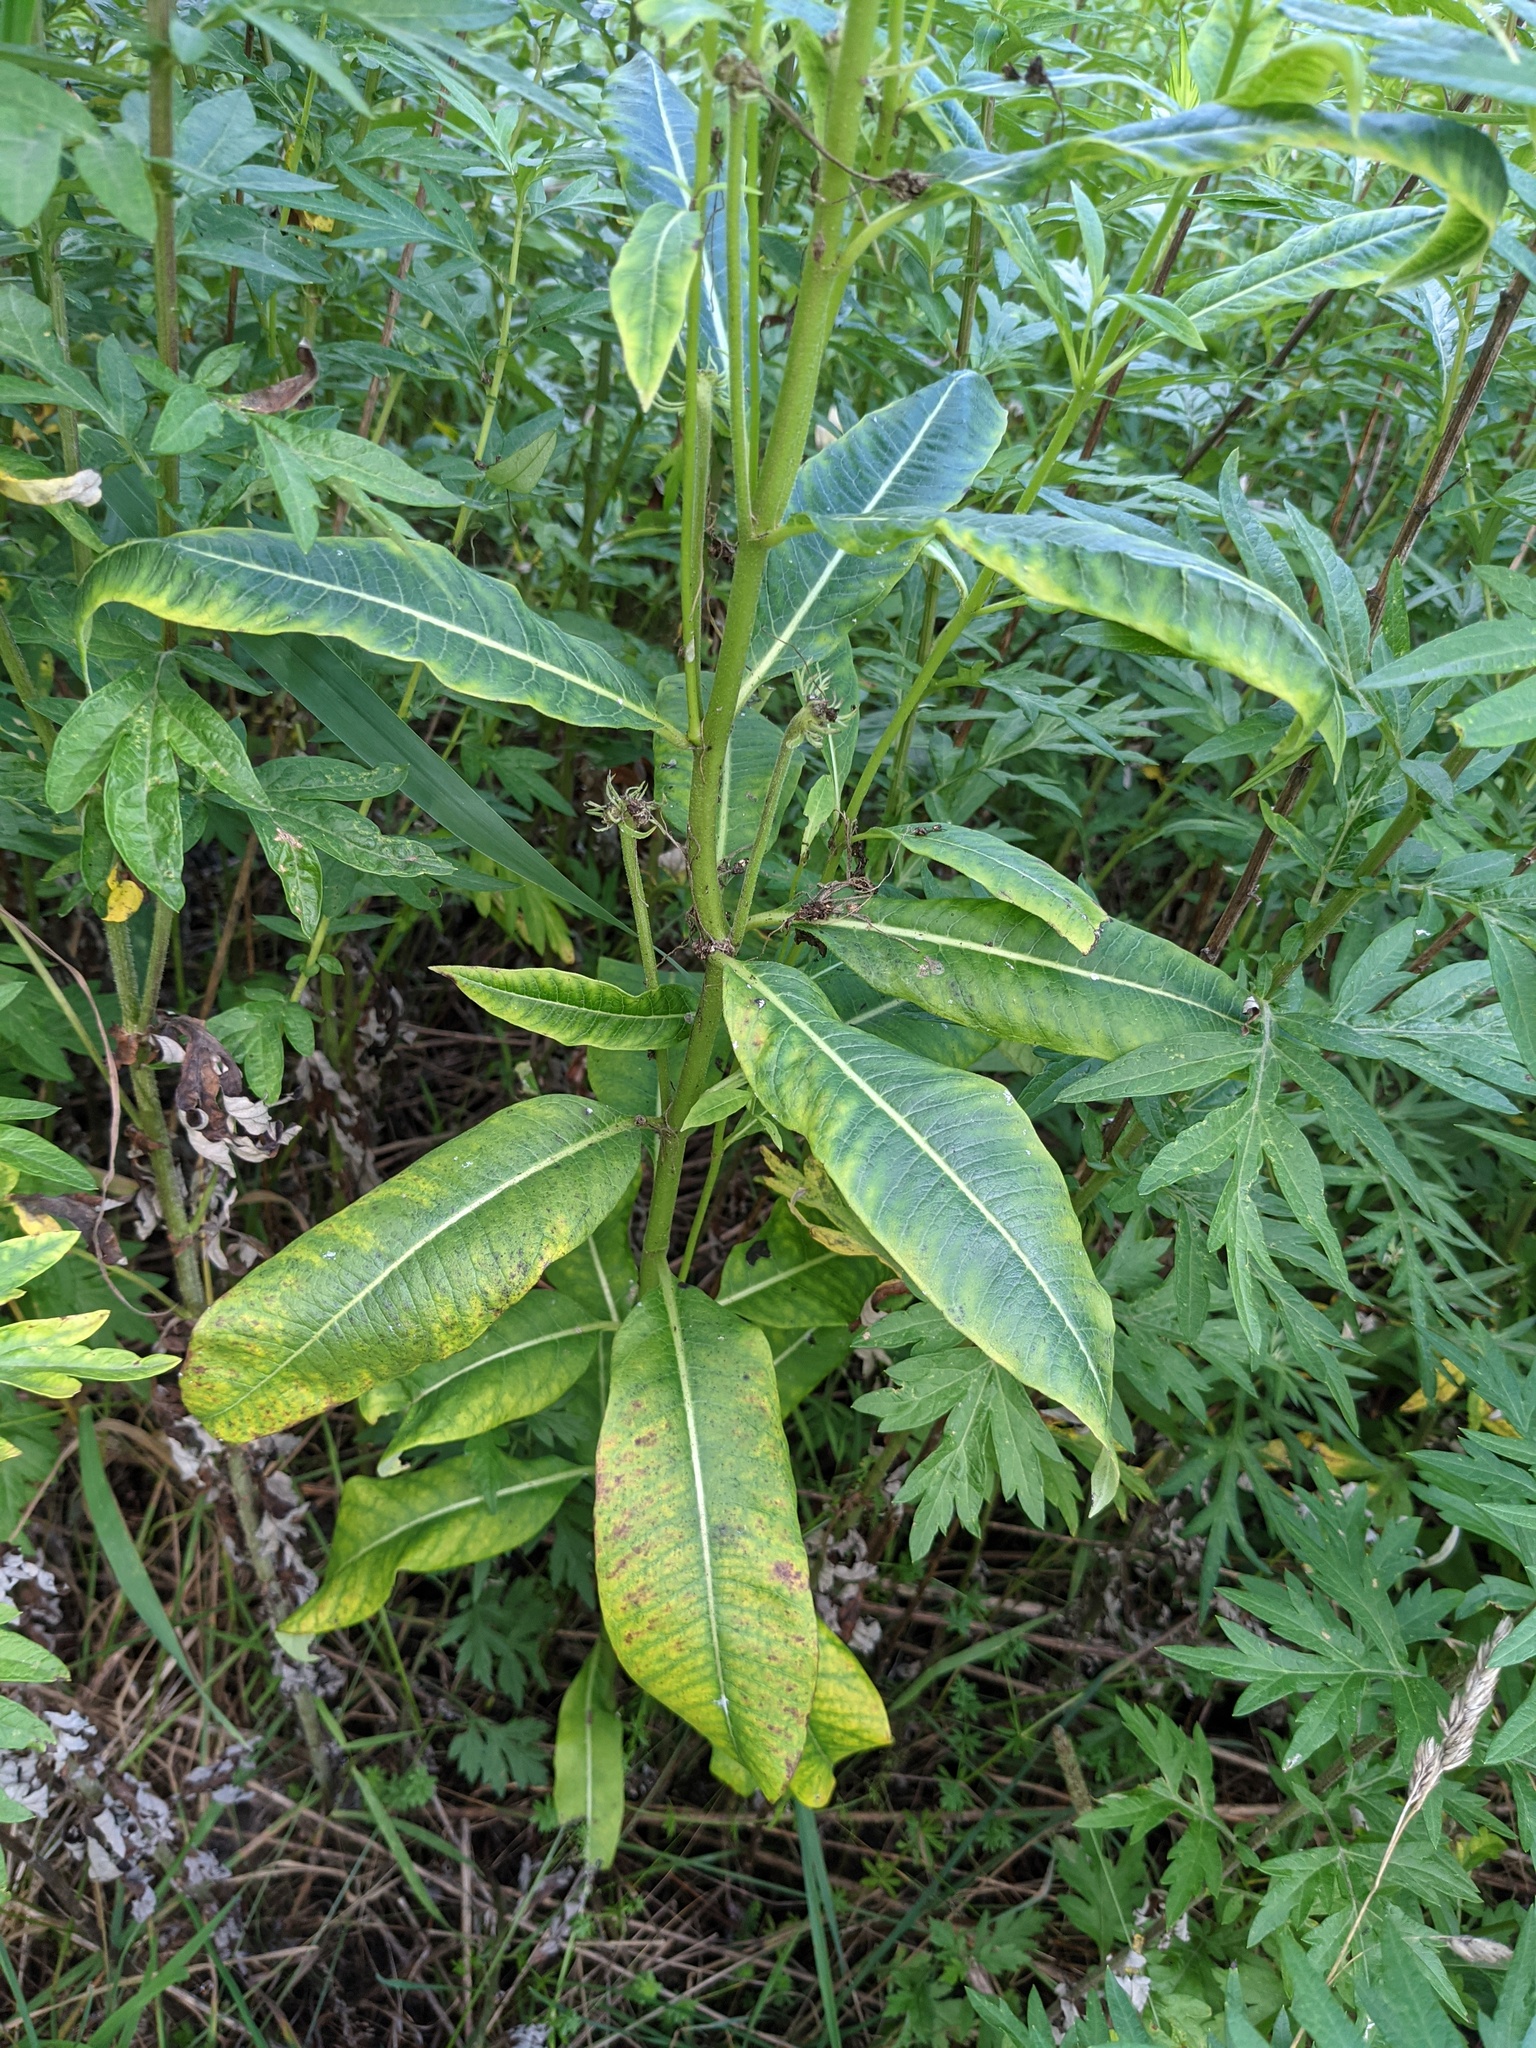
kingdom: Plantae
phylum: Tracheophyta
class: Magnoliopsida
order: Gentianales
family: Apocynaceae
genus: Asclepias
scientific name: Asclepias syriaca
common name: Common milkweed
